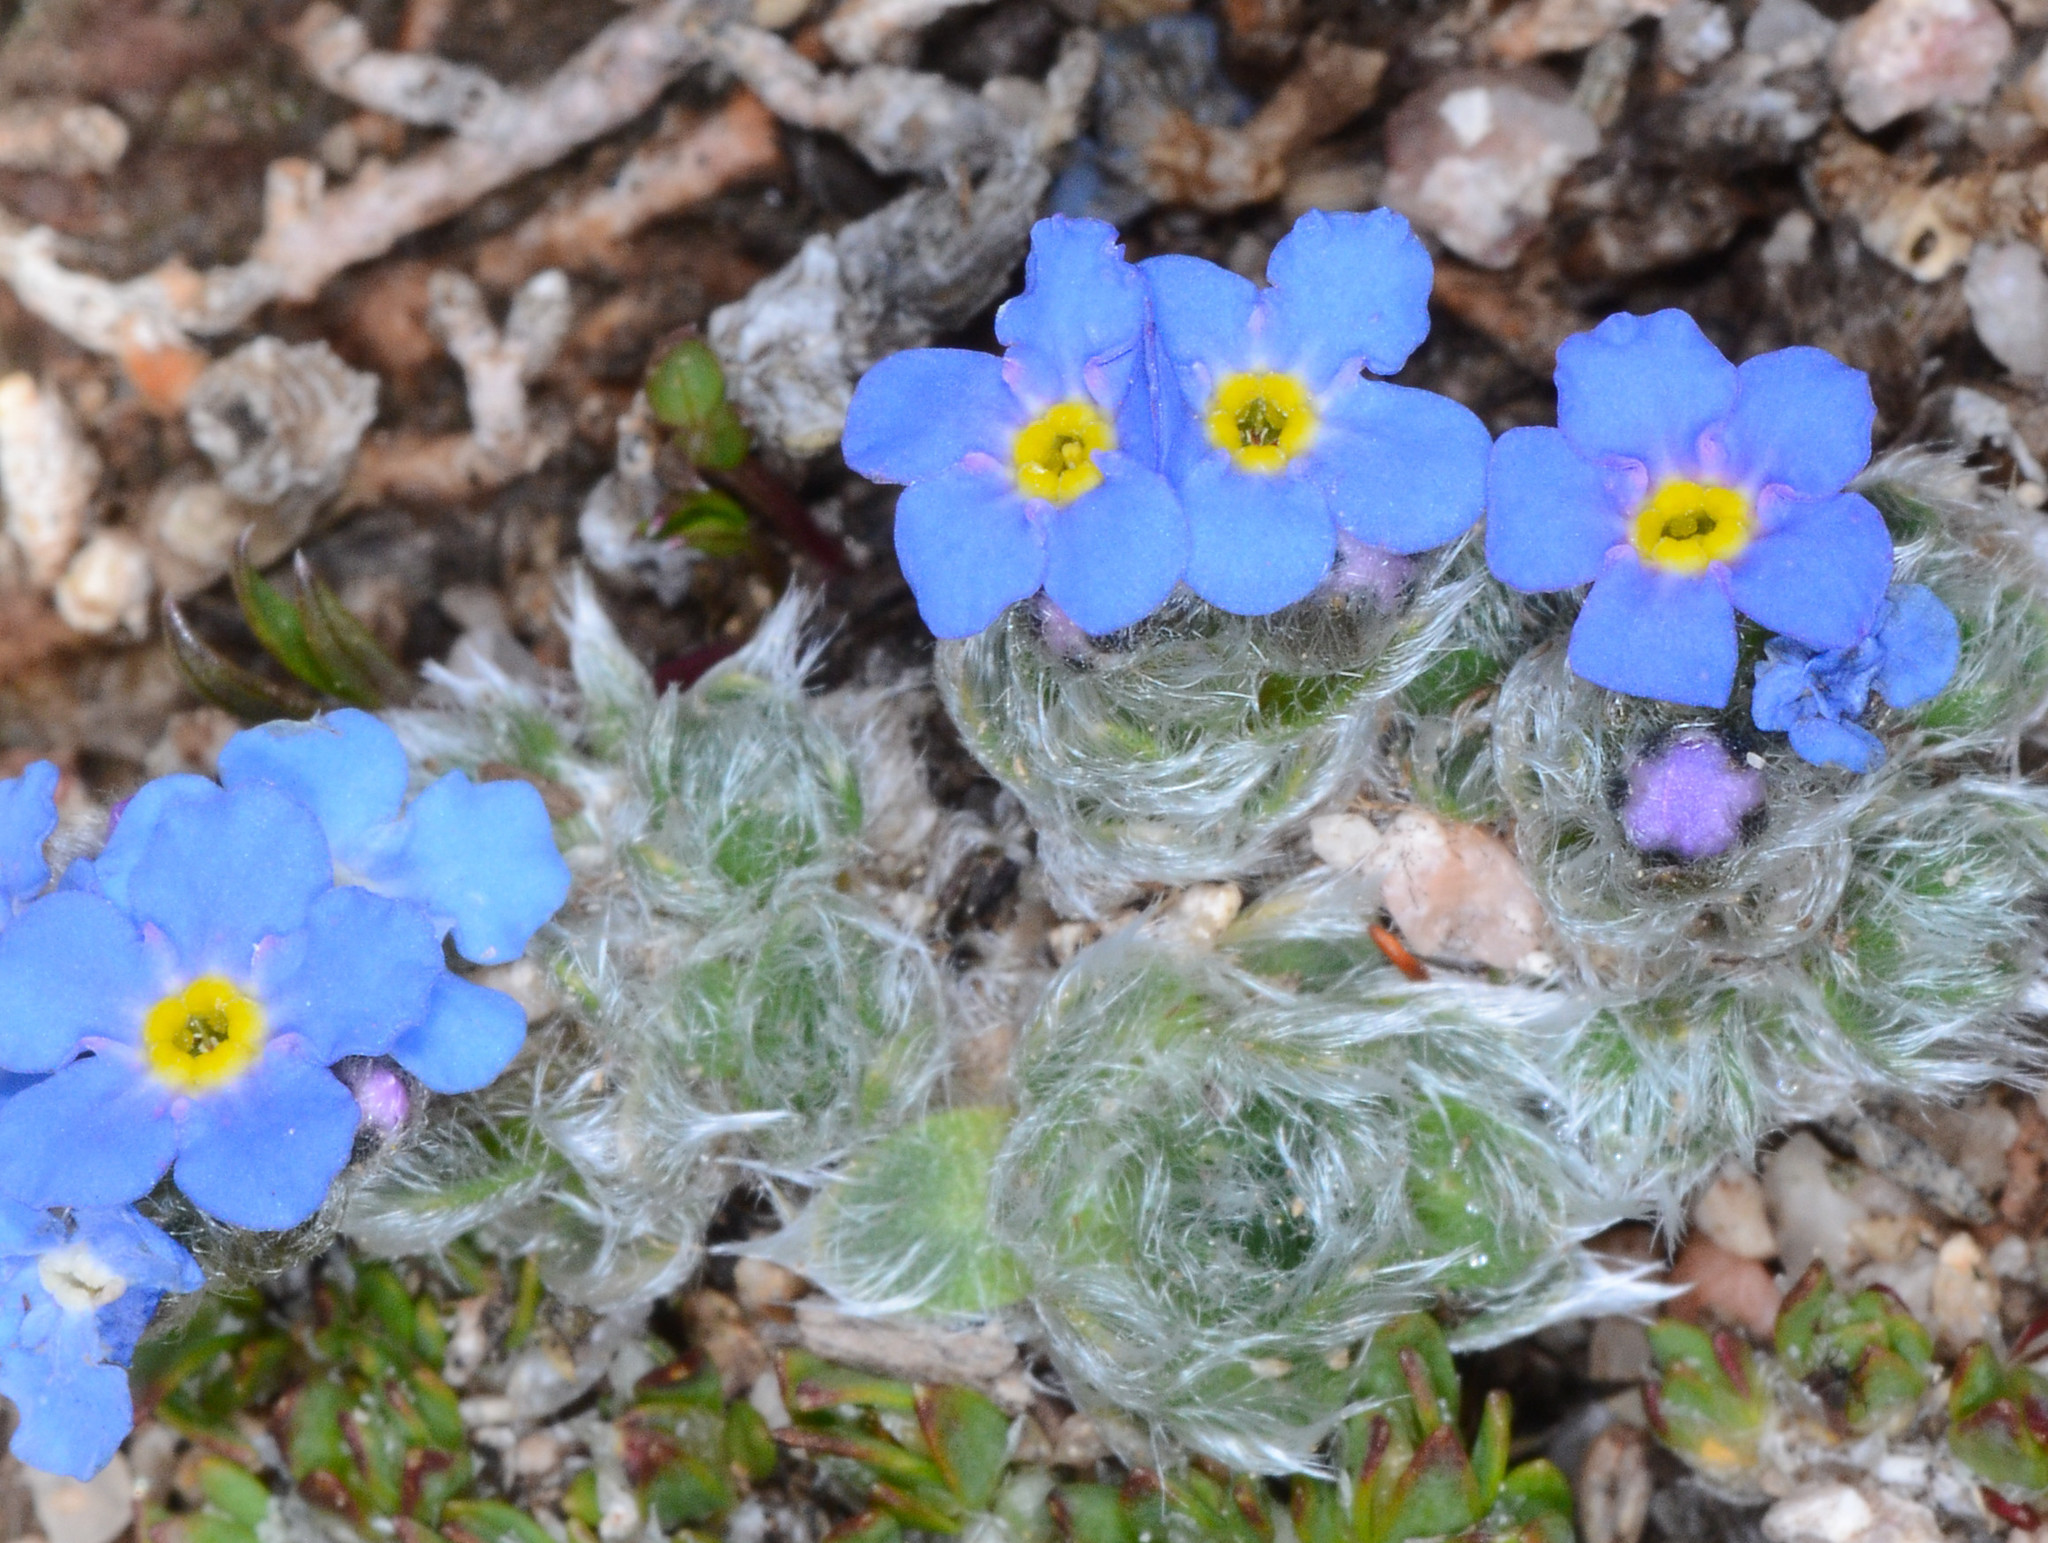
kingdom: Plantae
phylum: Tracheophyta
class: Magnoliopsida
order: Boraginales
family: Boraginaceae
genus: Eritrichium
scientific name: Eritrichium argenteum
